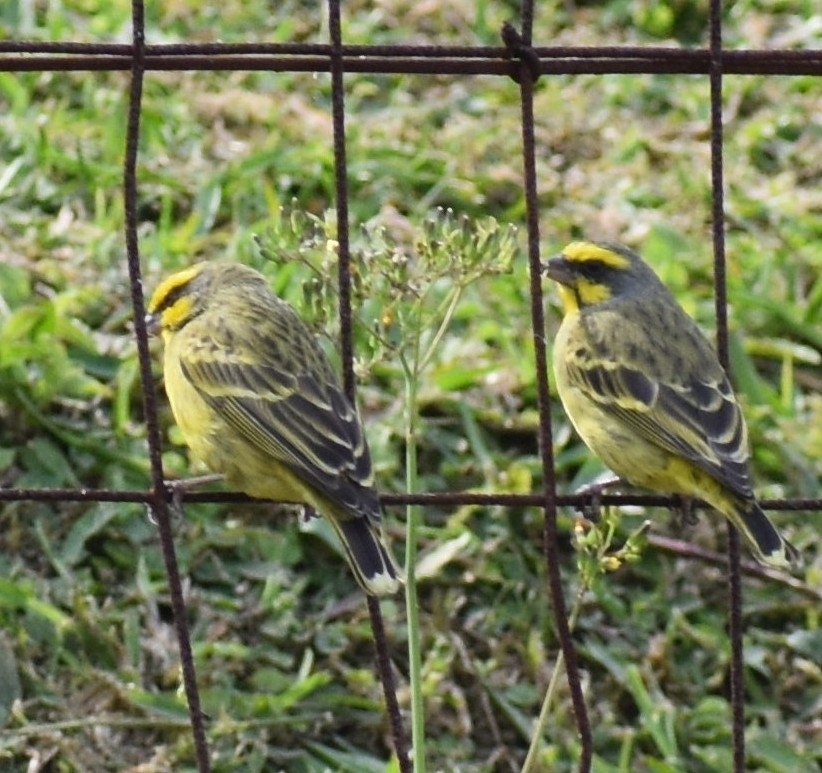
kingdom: Animalia
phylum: Chordata
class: Aves
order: Passeriformes
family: Fringillidae
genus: Crithagra
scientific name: Crithagra mozambica
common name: Yellow-fronted canary
